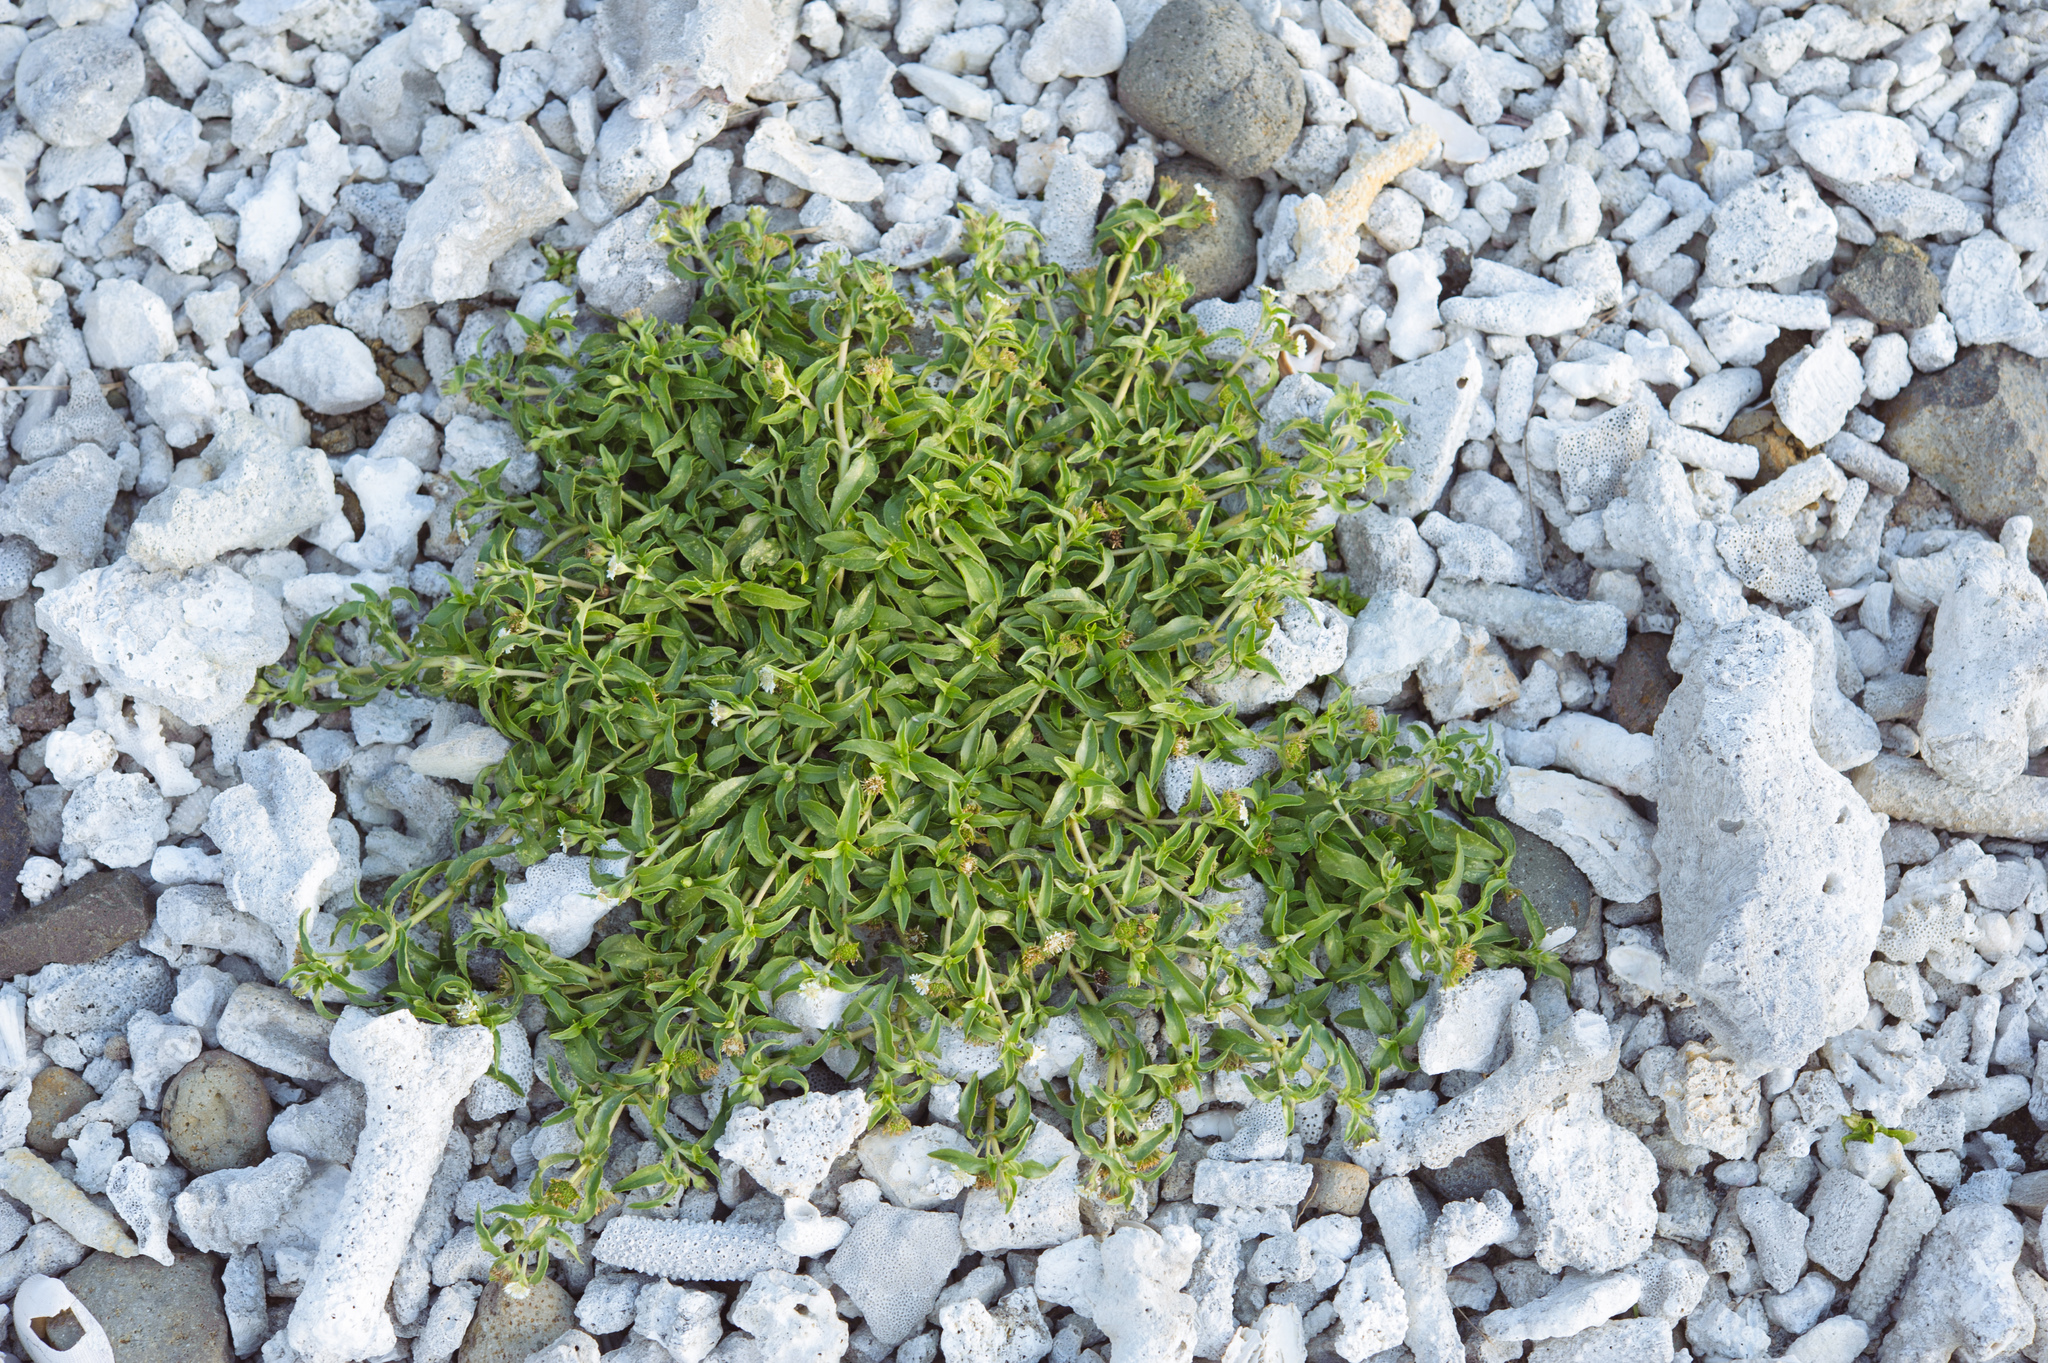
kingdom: Plantae
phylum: Tracheophyta
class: Magnoliopsida
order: Asterales
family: Asteraceae
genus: Eclipta
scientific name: Eclipta angustata
